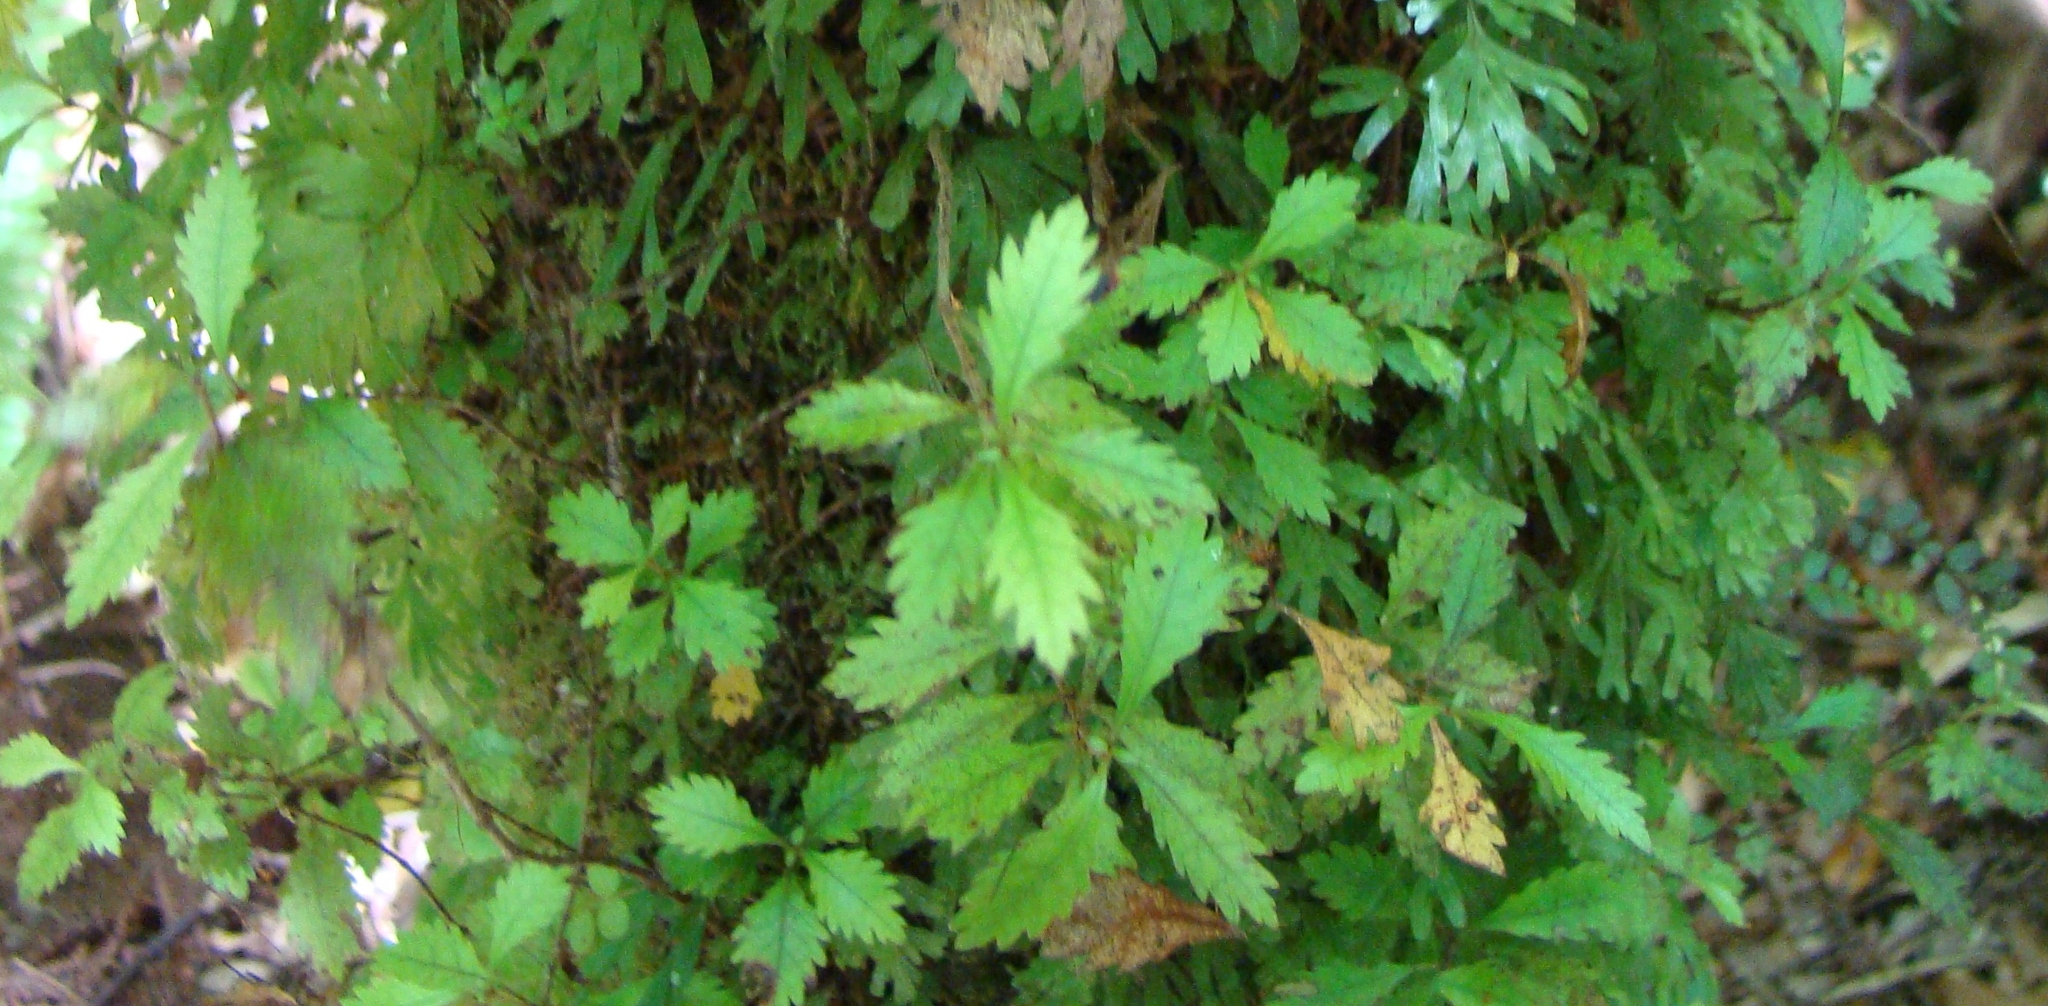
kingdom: Plantae
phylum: Tracheophyta
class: Magnoliopsida
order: Oxalidales
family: Cunoniaceae
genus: Pterophylla
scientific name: Pterophylla racemosa
